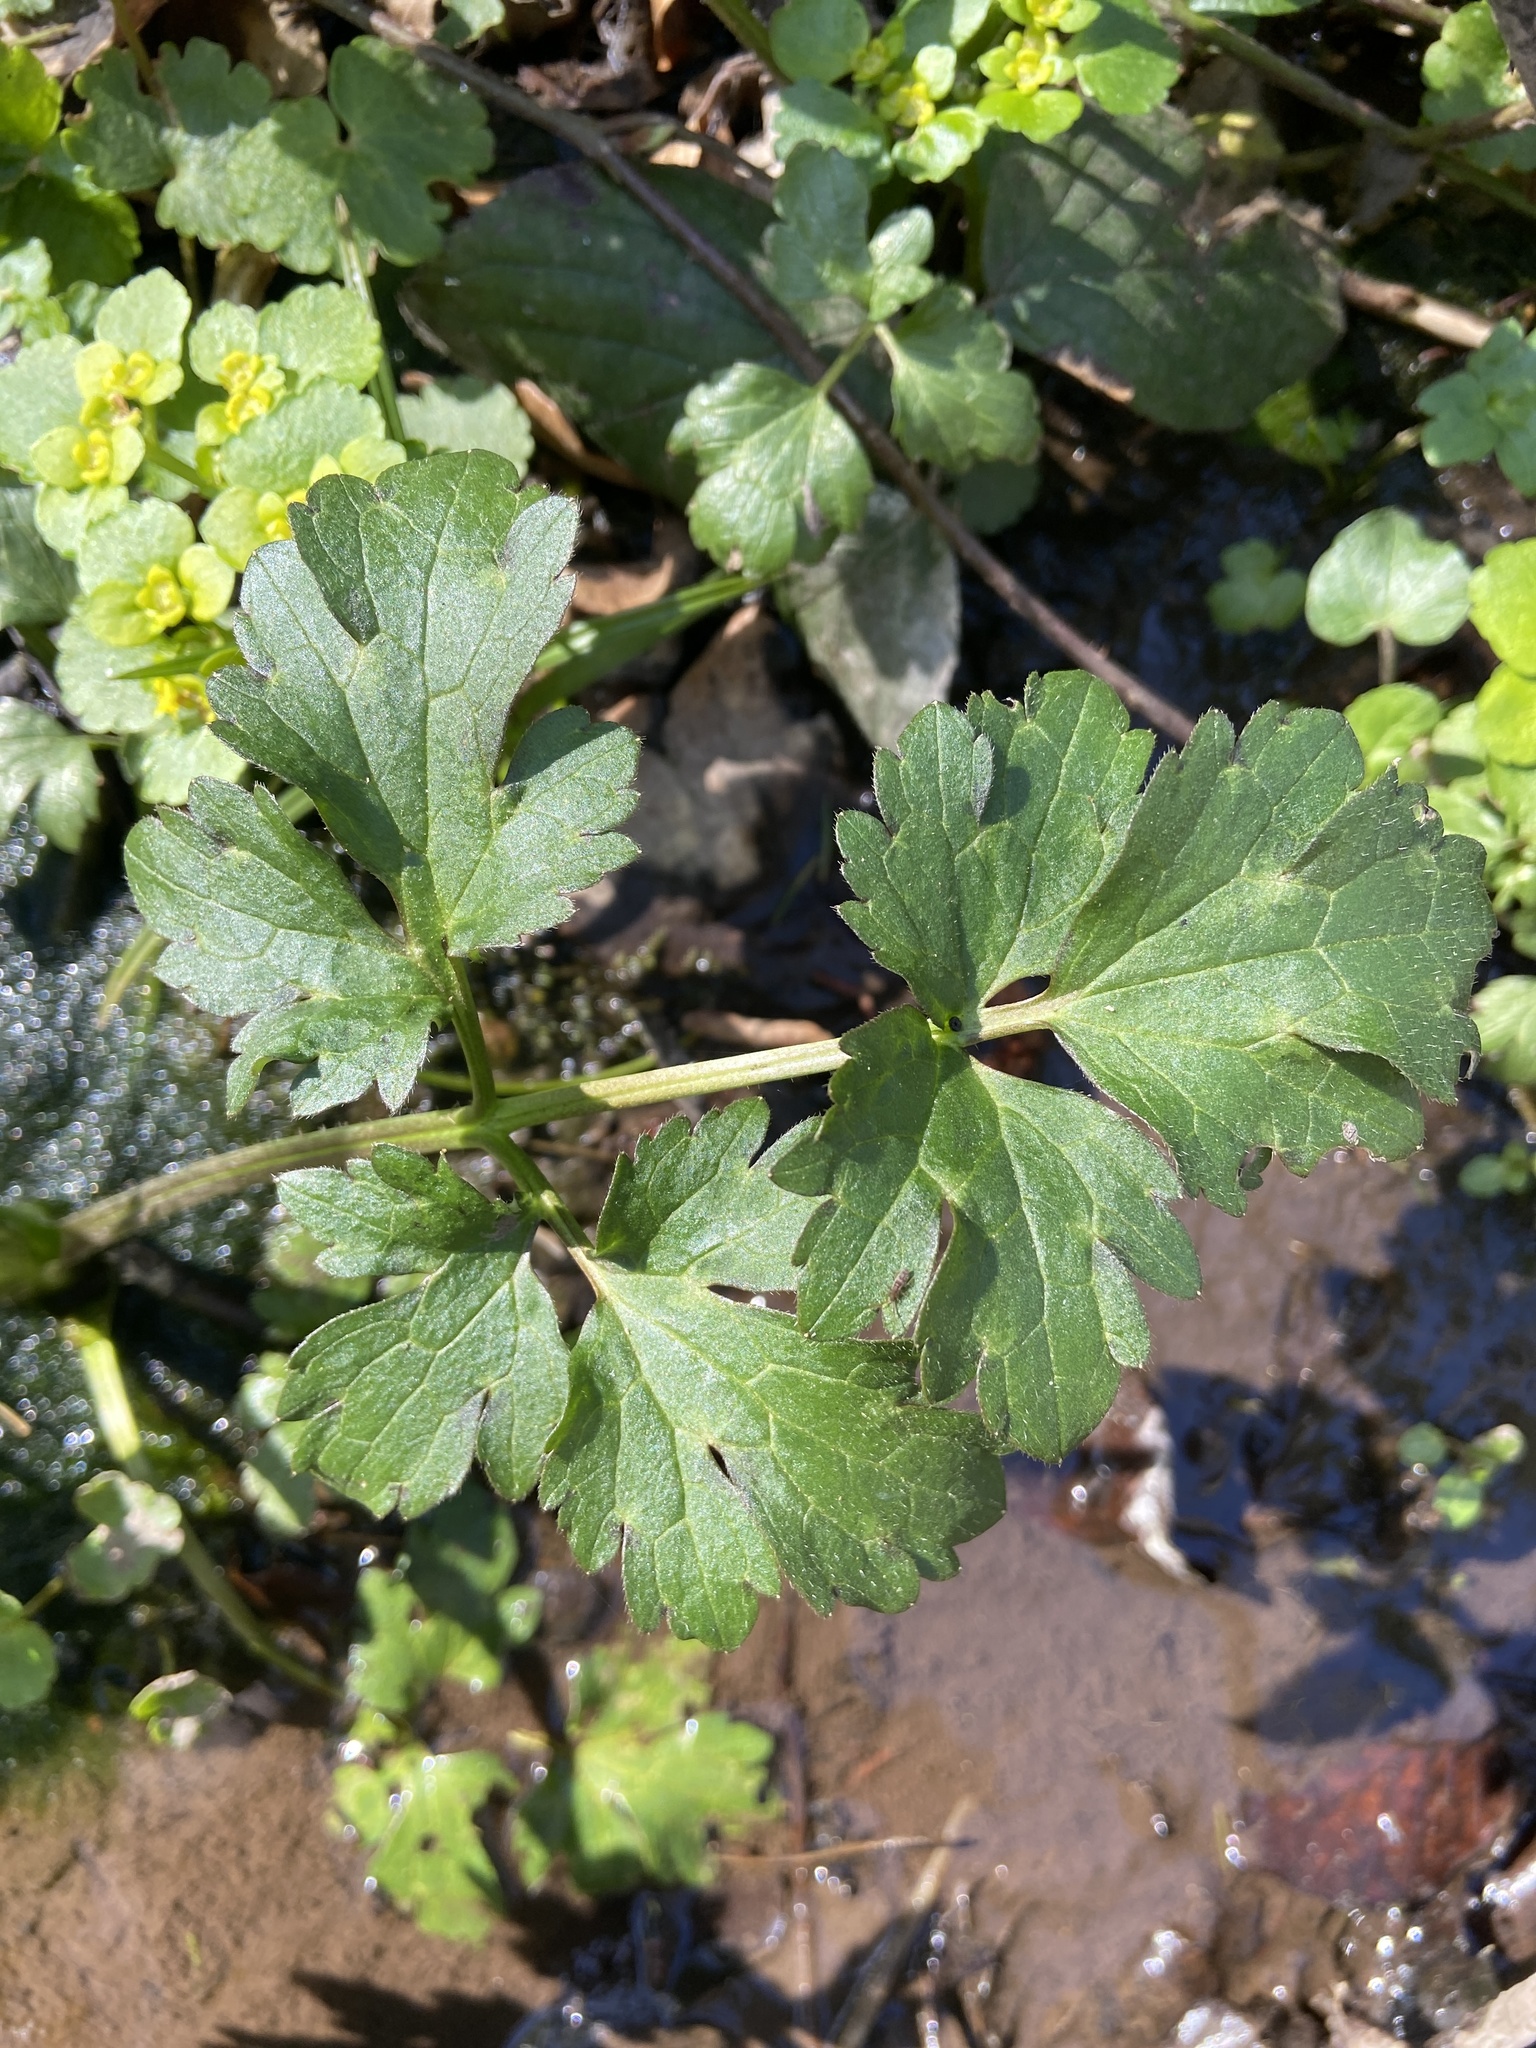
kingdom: Plantae
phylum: Tracheophyta
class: Magnoliopsida
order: Ranunculales
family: Ranunculaceae
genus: Ranunculus
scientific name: Ranunculus repens
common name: Creeping buttercup
